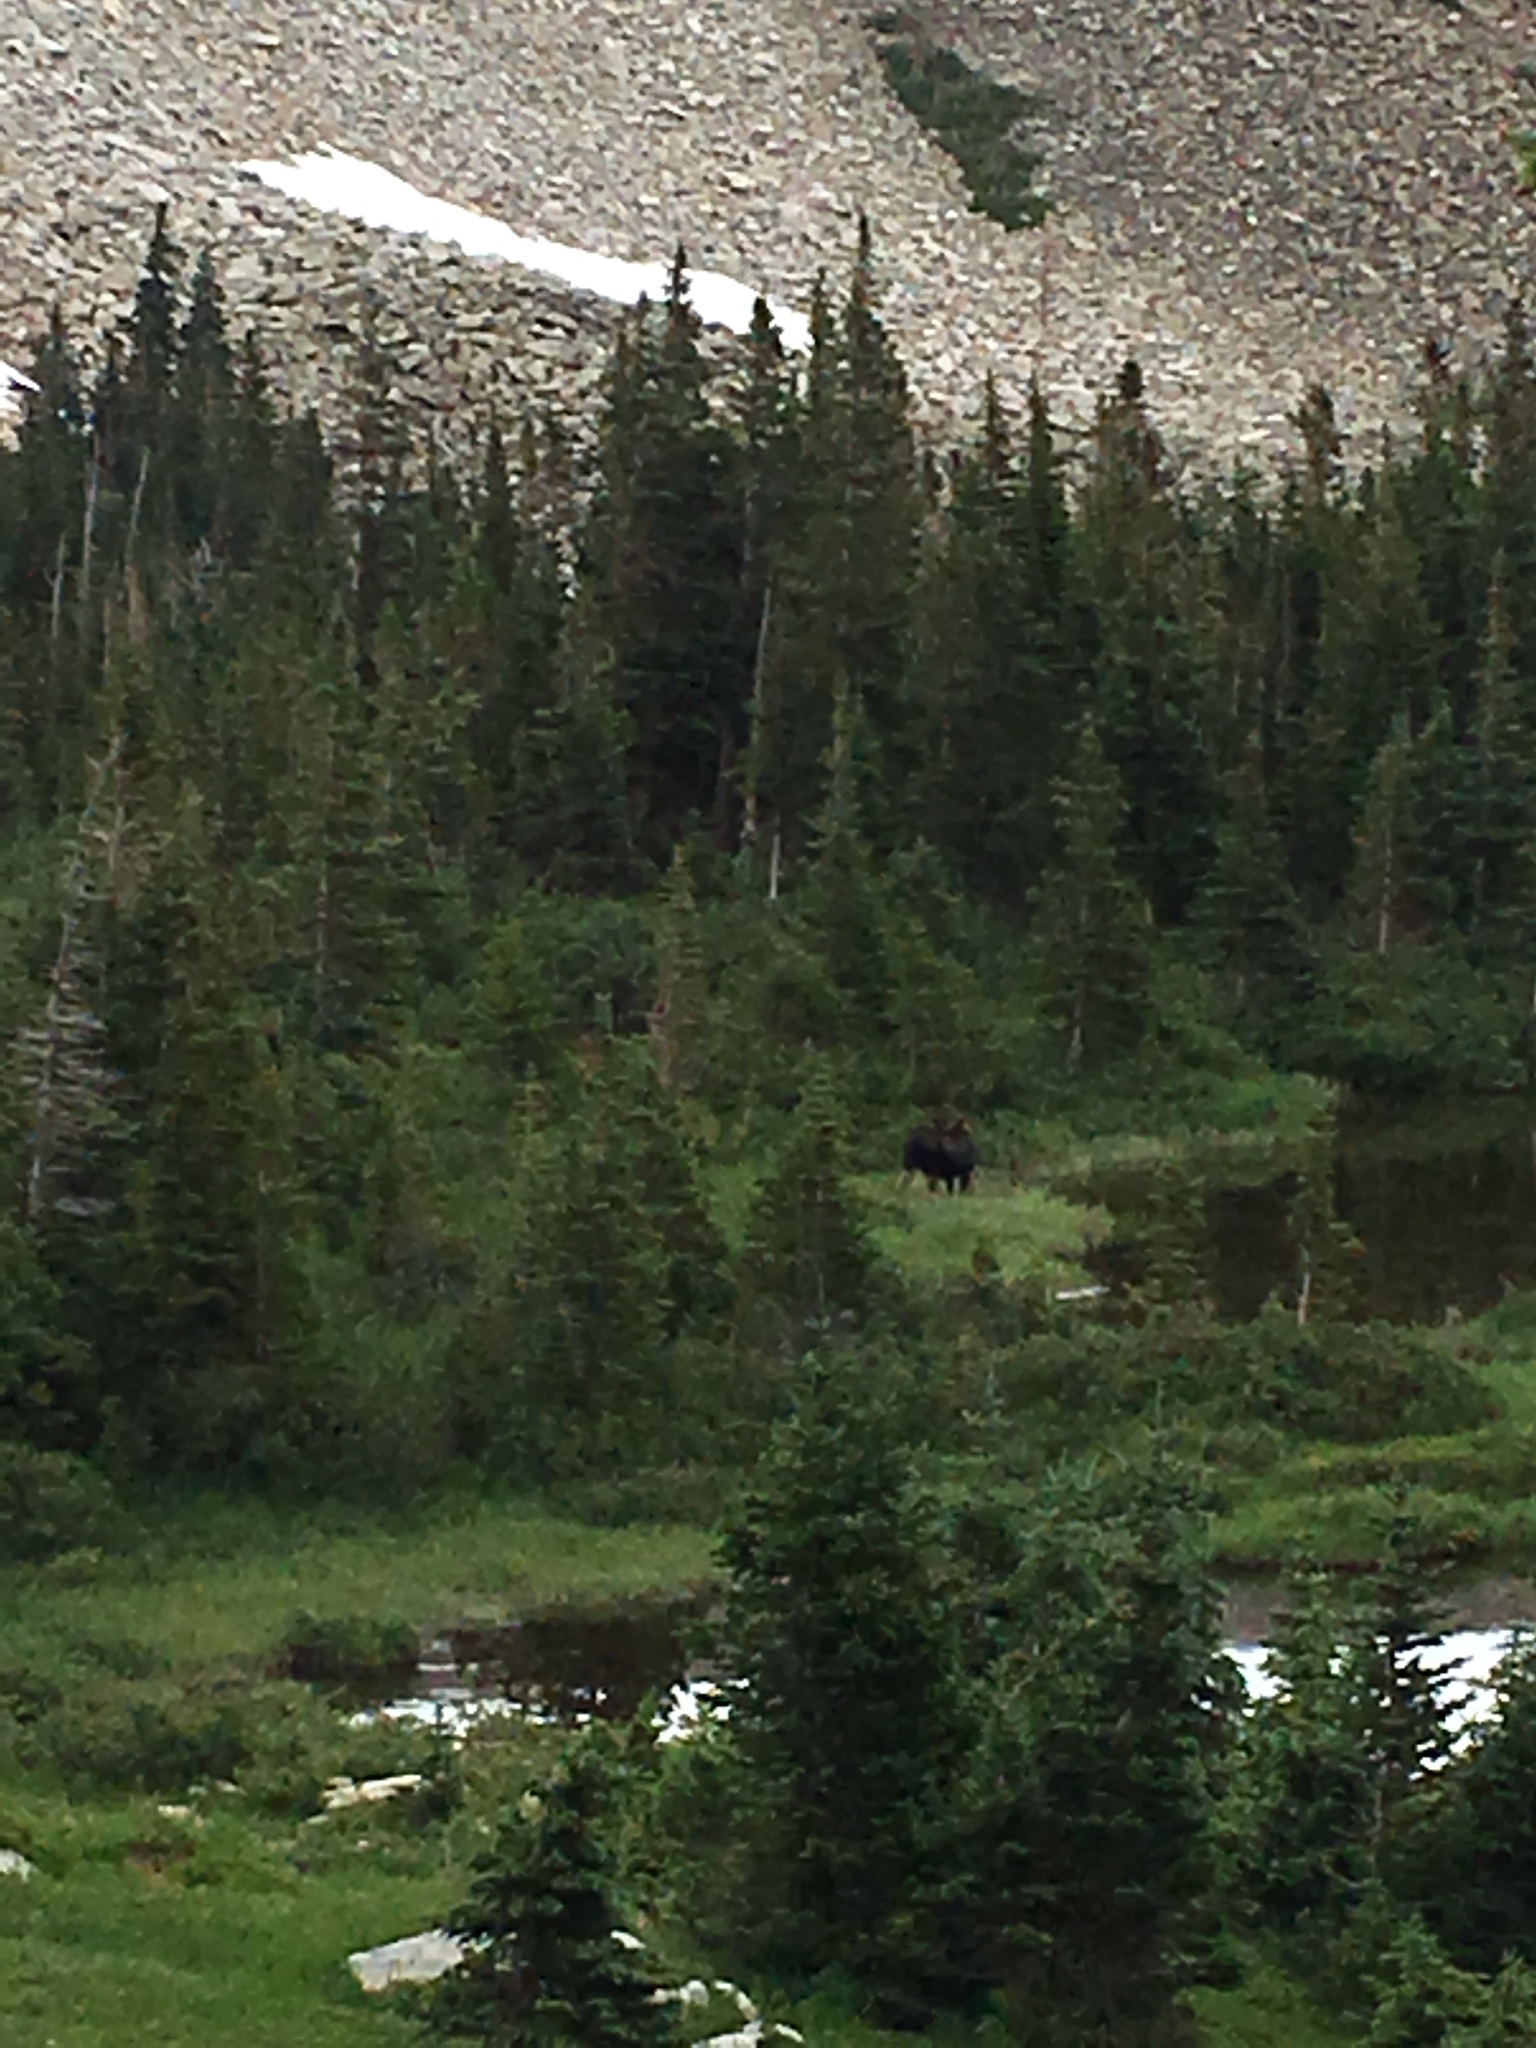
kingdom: Animalia
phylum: Chordata
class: Mammalia
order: Artiodactyla
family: Cervidae
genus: Alces
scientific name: Alces alces
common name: Moose
